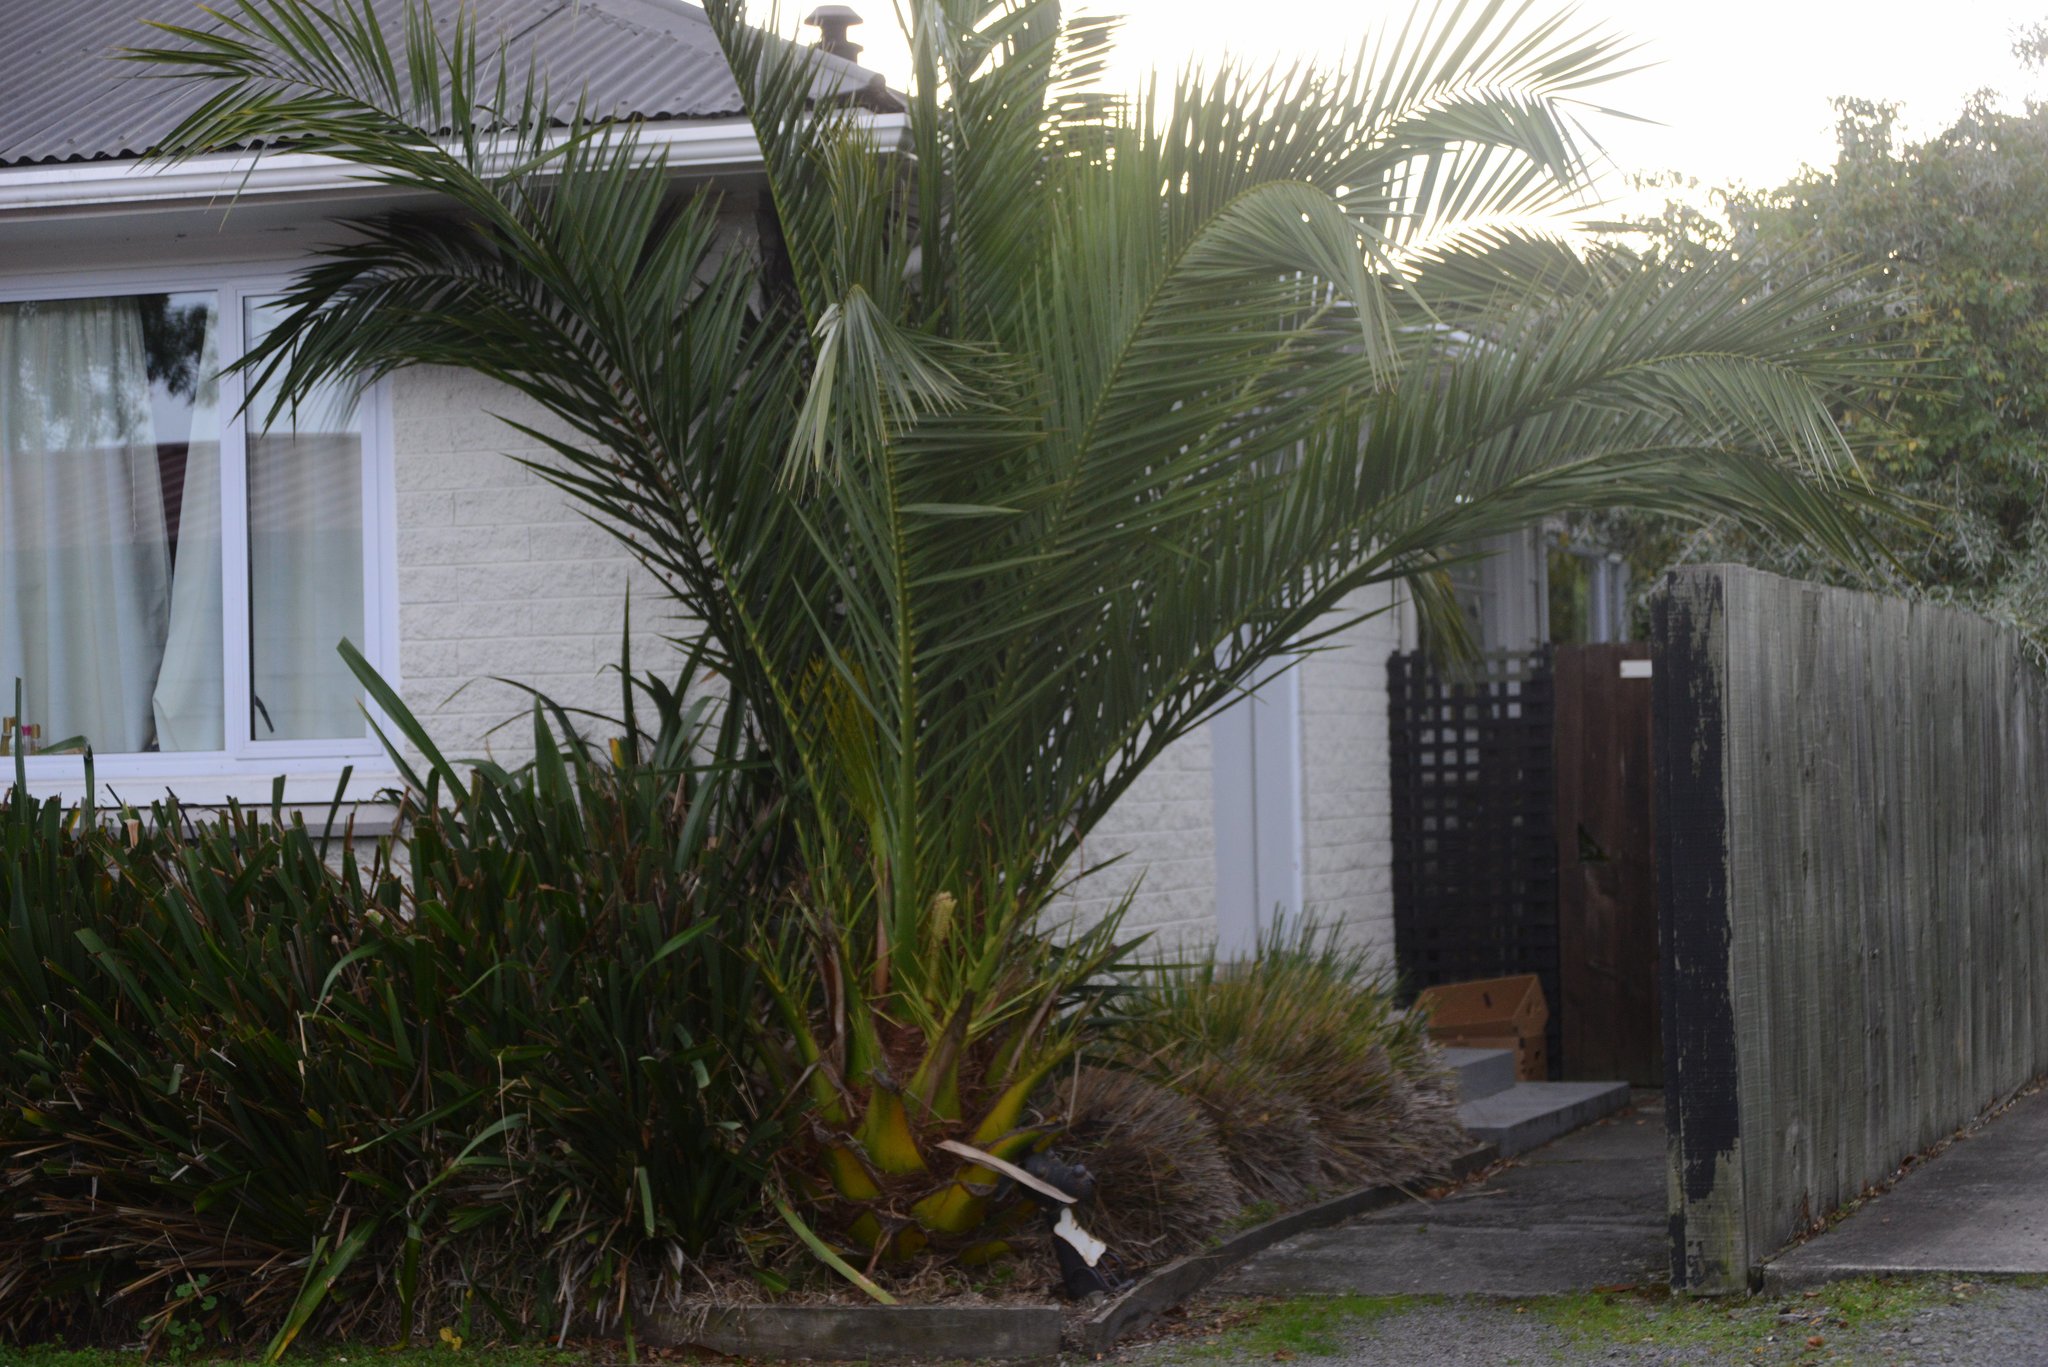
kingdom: Plantae
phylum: Tracheophyta
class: Liliopsida
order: Arecales
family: Arecaceae
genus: Phoenix
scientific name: Phoenix canariensis
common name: Canary island date palm
